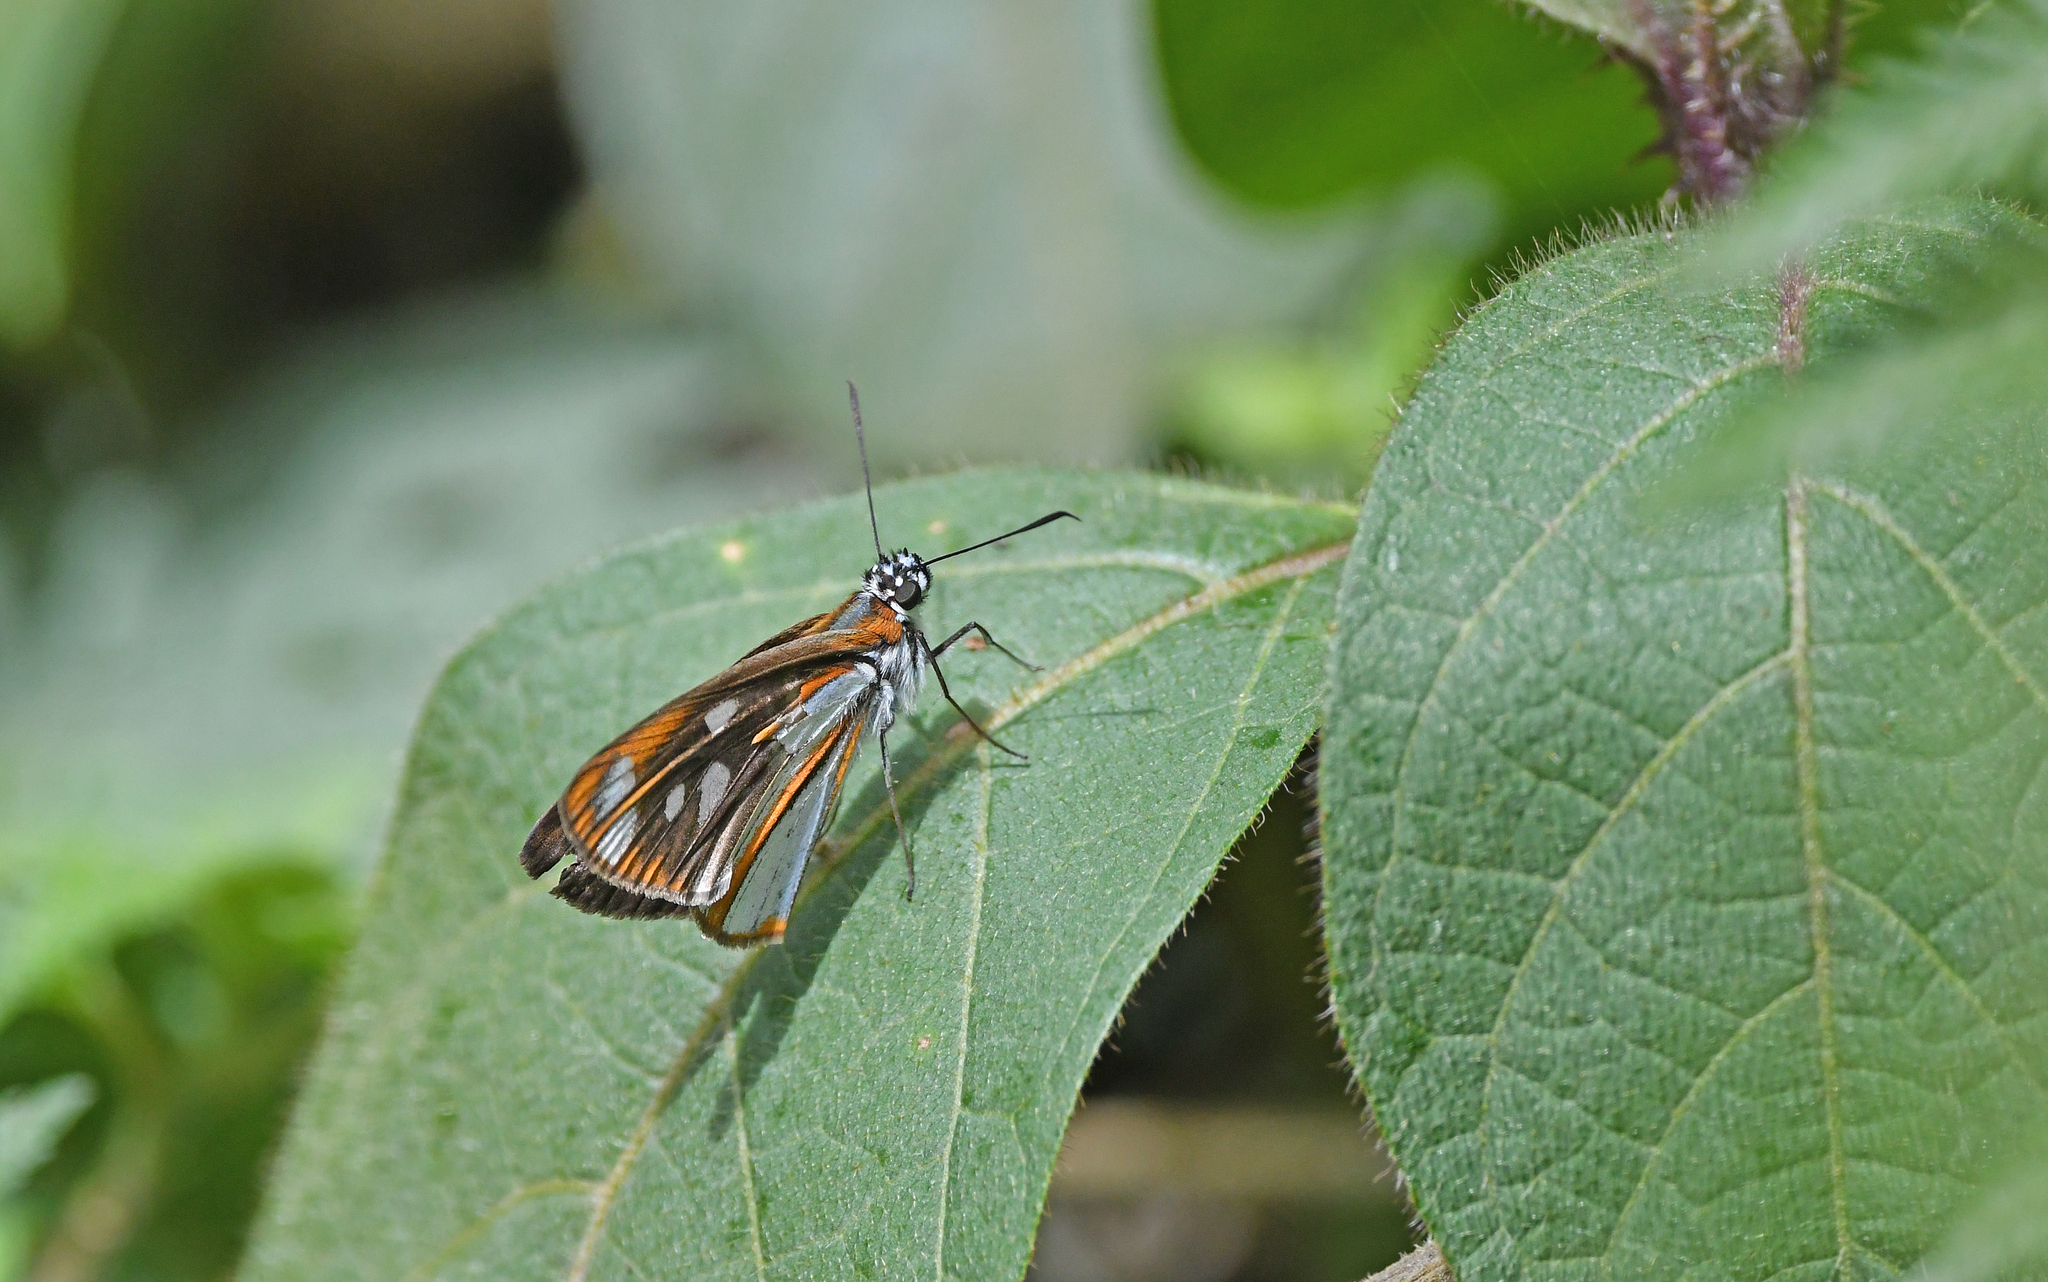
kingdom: Animalia
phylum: Arthropoda
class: Insecta
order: Lepidoptera
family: Hesperiidae
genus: Corra
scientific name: Corra
